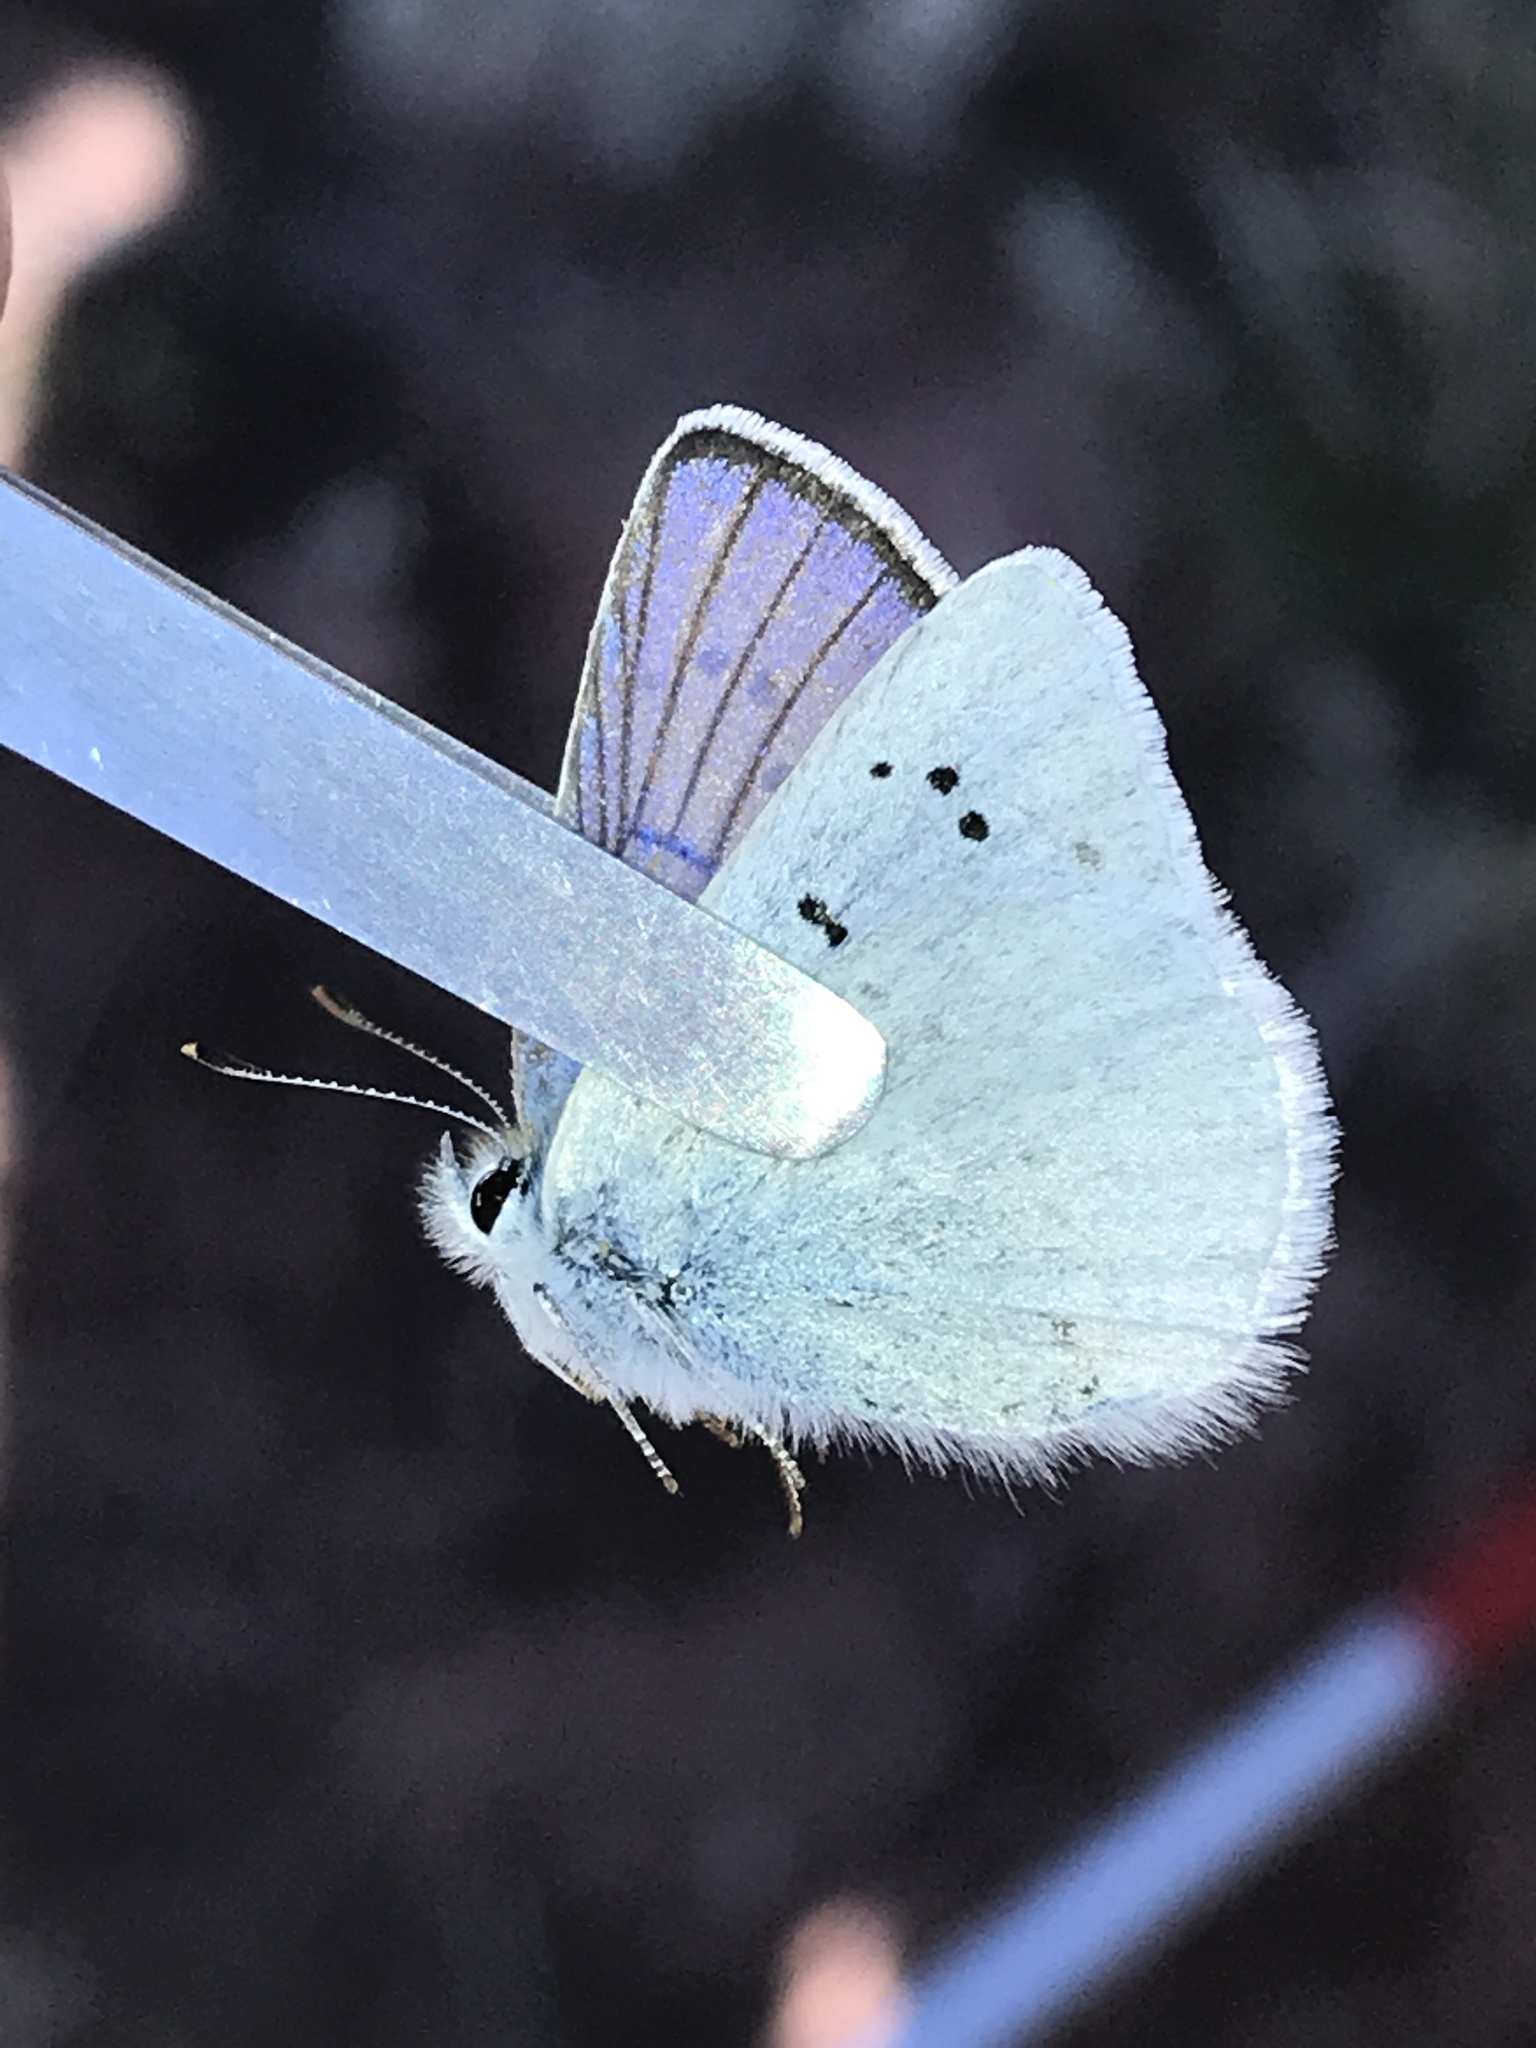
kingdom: Animalia
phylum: Arthropoda
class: Insecta
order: Lepidoptera
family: Lycaenidae
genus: Tharsalea
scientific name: Tharsalea heteronea
